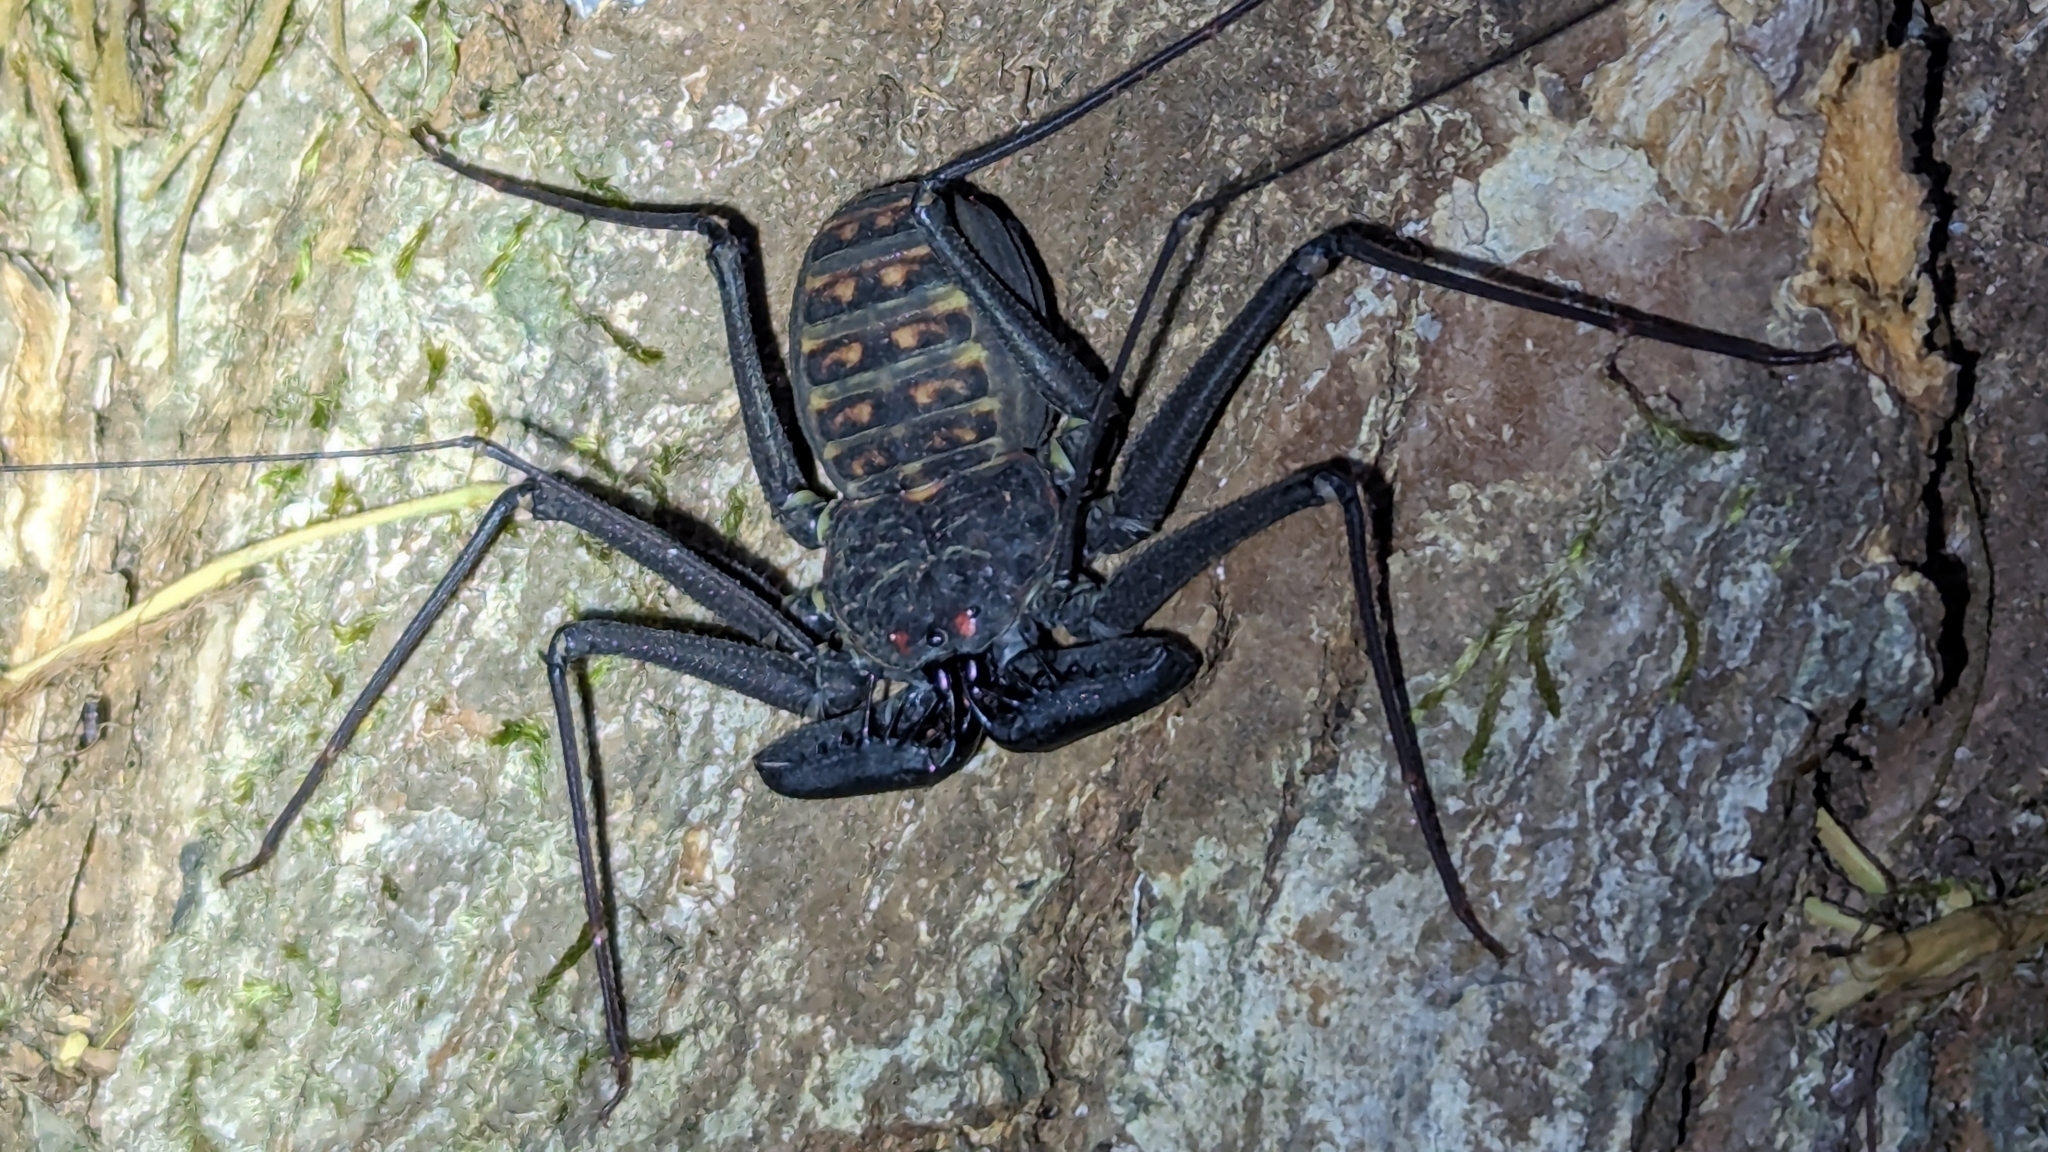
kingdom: Animalia
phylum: Arthropoda
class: Arachnida
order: Amblypygi
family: Phrynidae
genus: Phrynus
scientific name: Phrynus whitei
